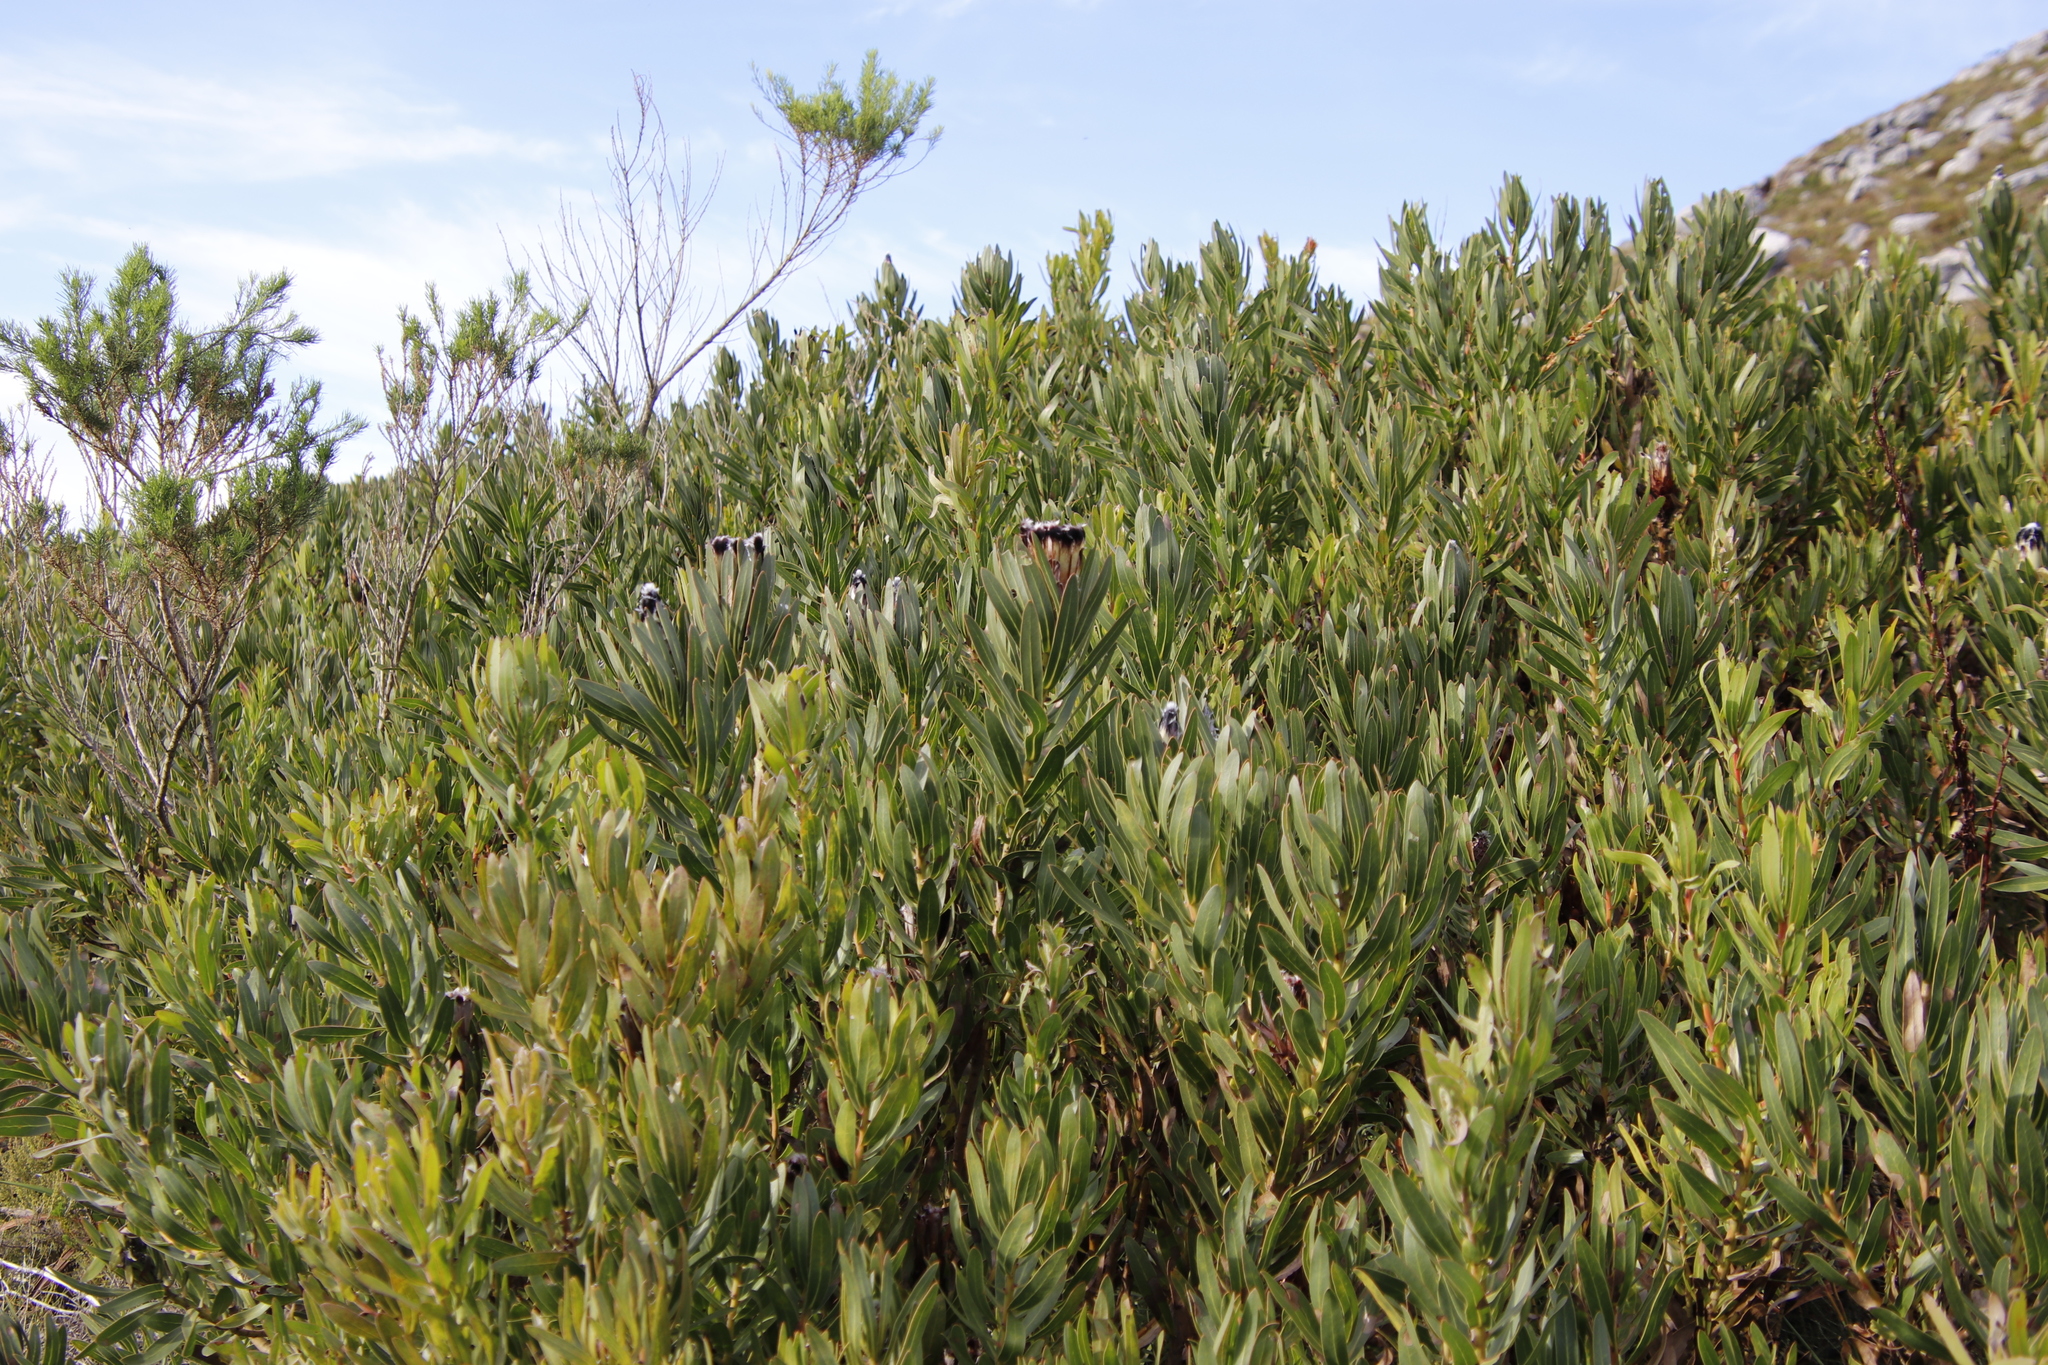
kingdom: Plantae
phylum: Tracheophyta
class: Magnoliopsida
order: Proteales
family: Proteaceae
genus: Protea
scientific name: Protea lepidocarpodendron
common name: Black-bearded protea
